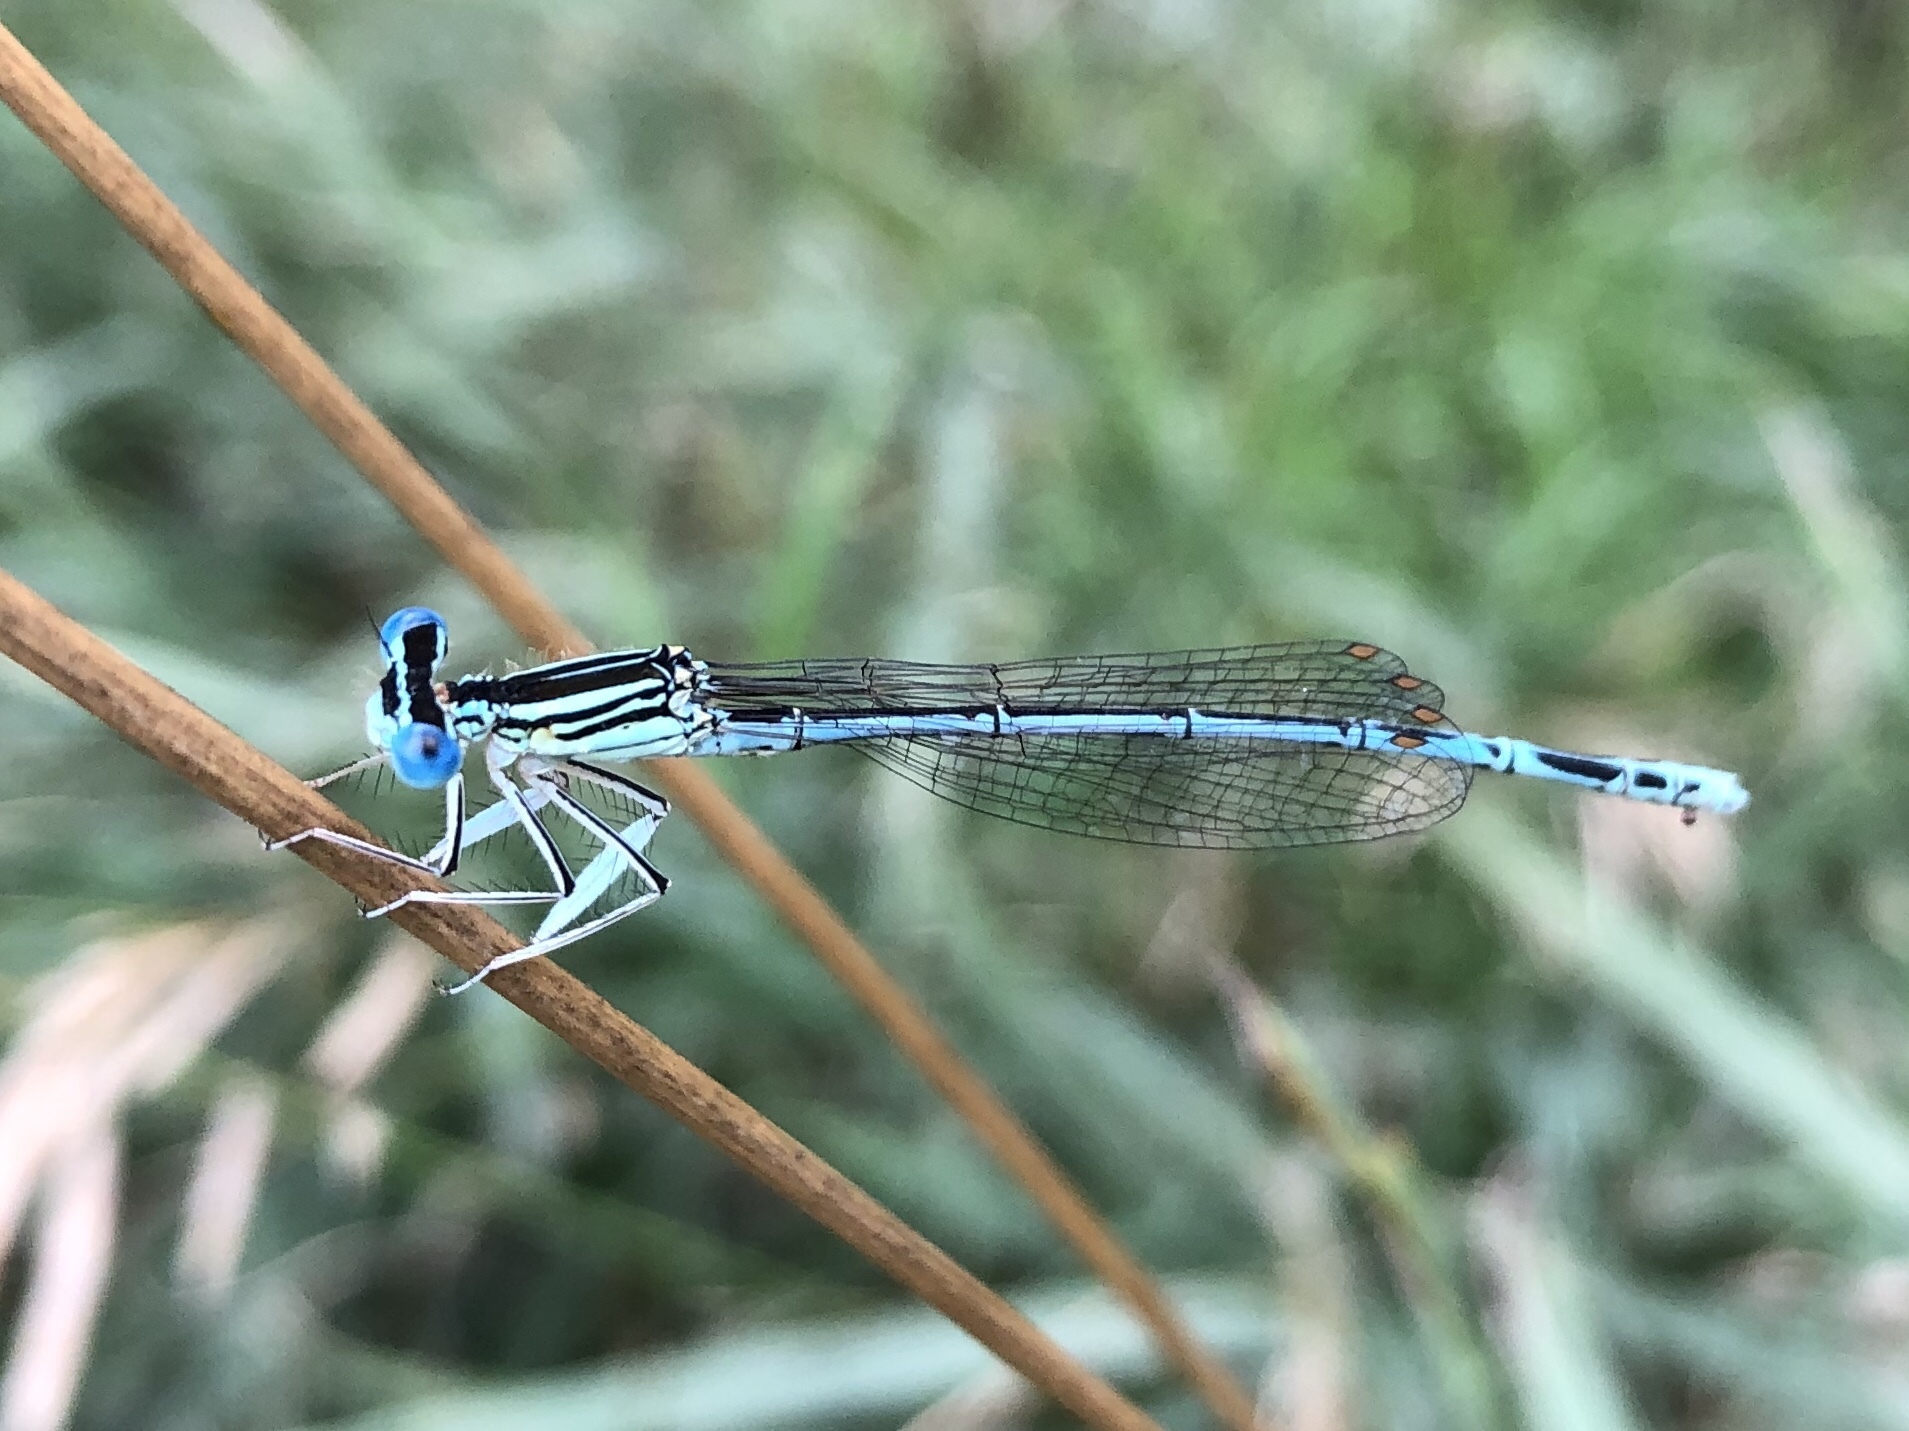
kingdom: Animalia
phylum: Arthropoda
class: Insecta
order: Odonata
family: Platycnemididae
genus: Platycnemis
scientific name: Platycnemis pennipes
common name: White-legged damselfly
